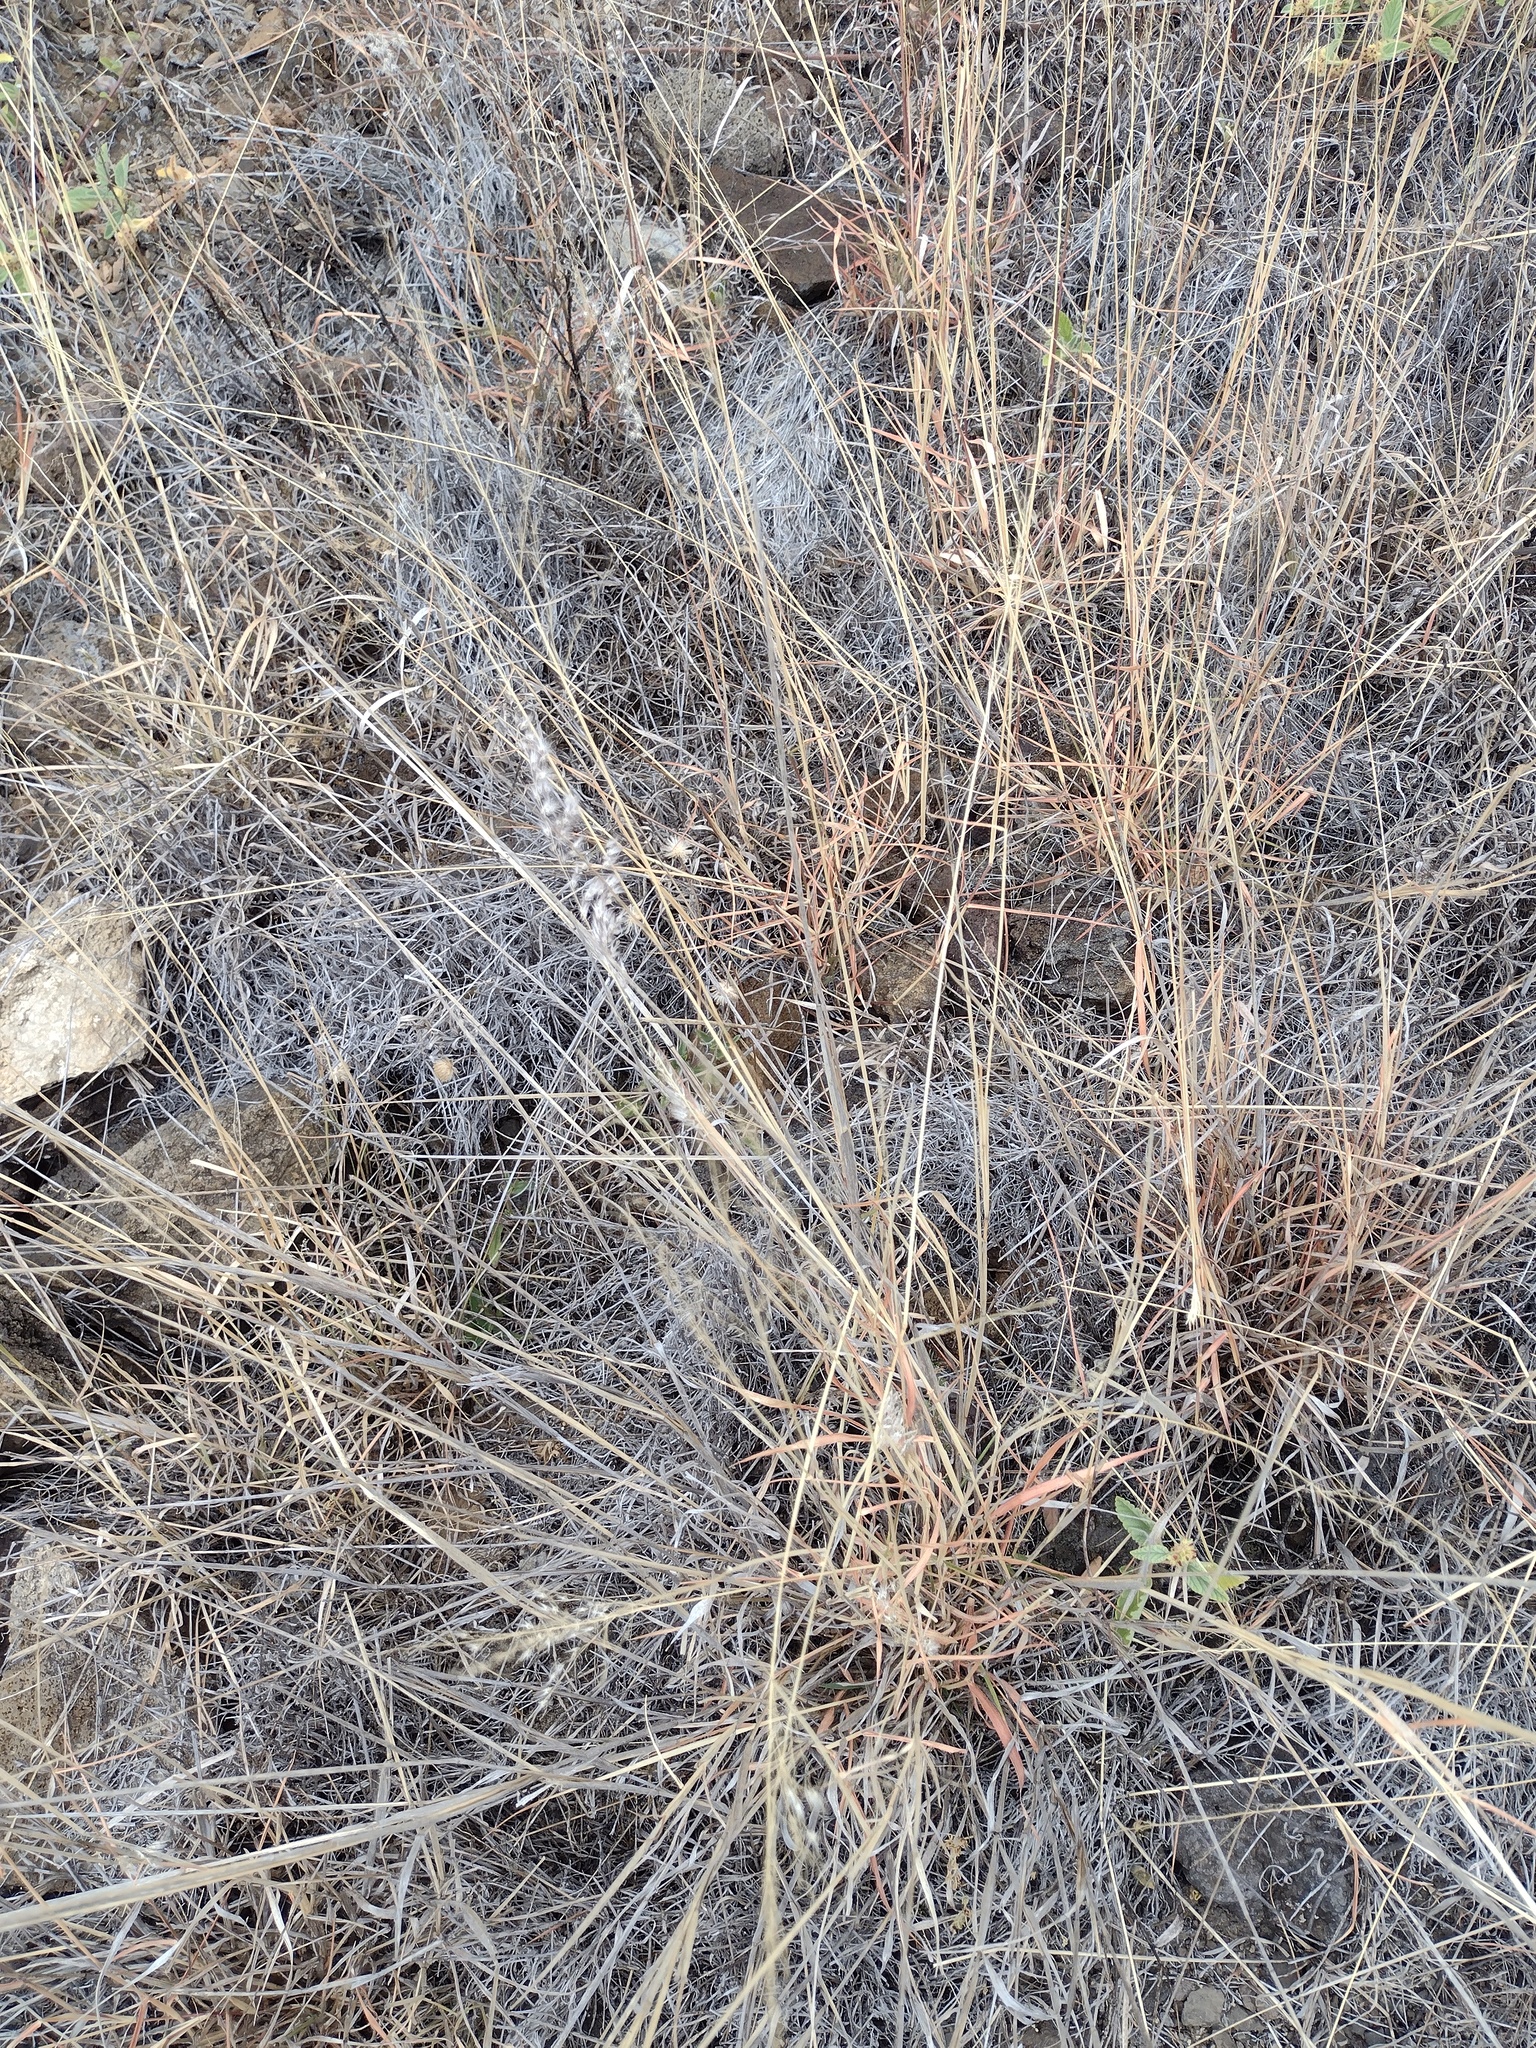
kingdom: Plantae
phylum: Tracheophyta
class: Liliopsida
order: Poales
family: Poaceae
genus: Melinis
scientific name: Melinis repens
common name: Rose natal grass
